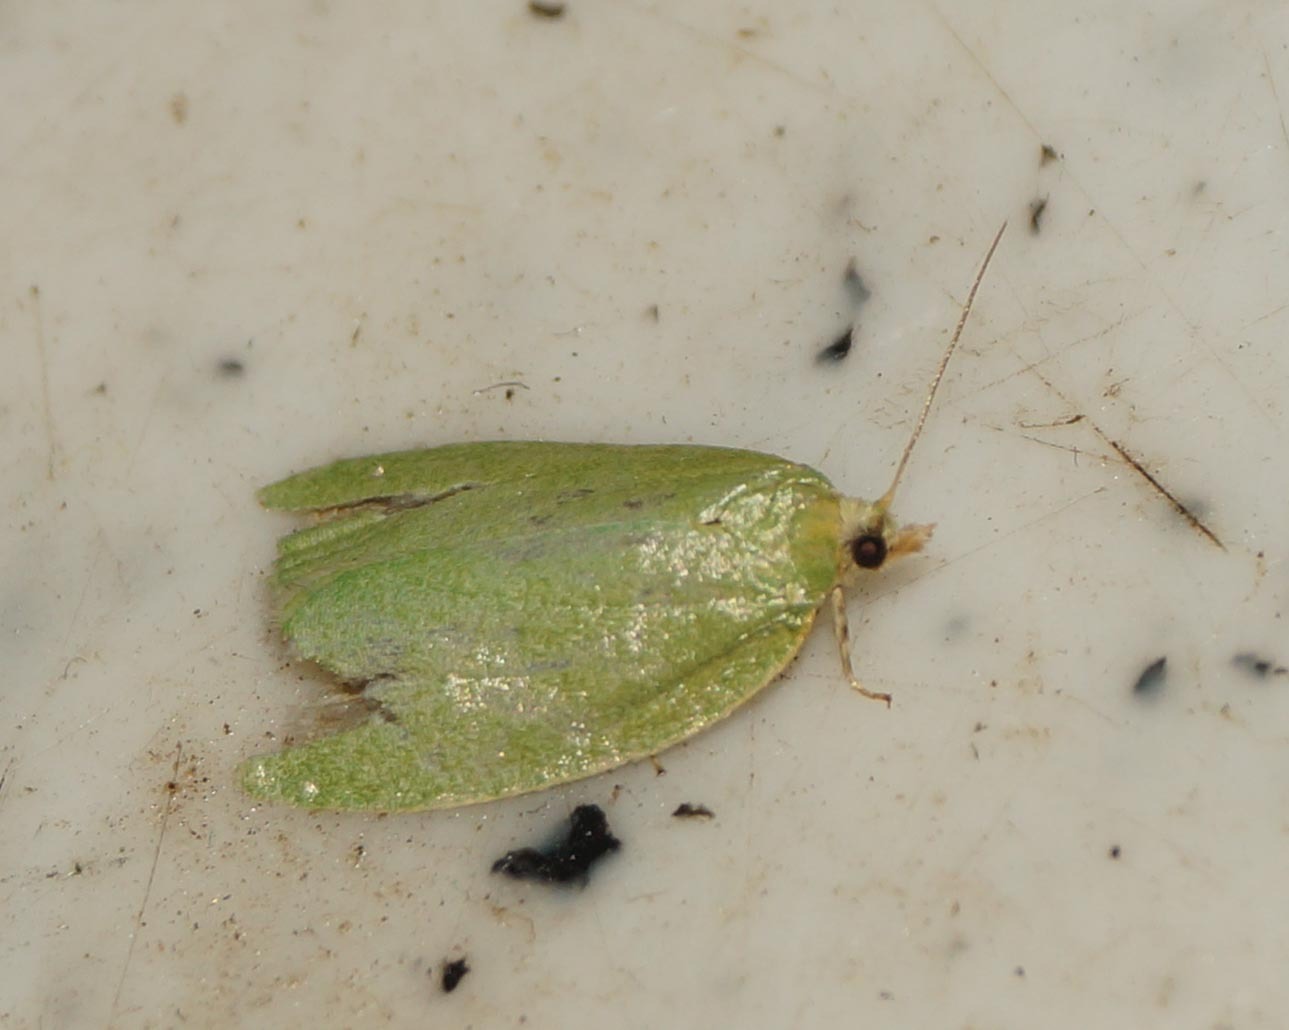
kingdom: Animalia
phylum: Arthropoda
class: Insecta
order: Lepidoptera
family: Tortricidae
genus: Tortrix
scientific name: Tortrix viridana
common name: Green oak tortrix
